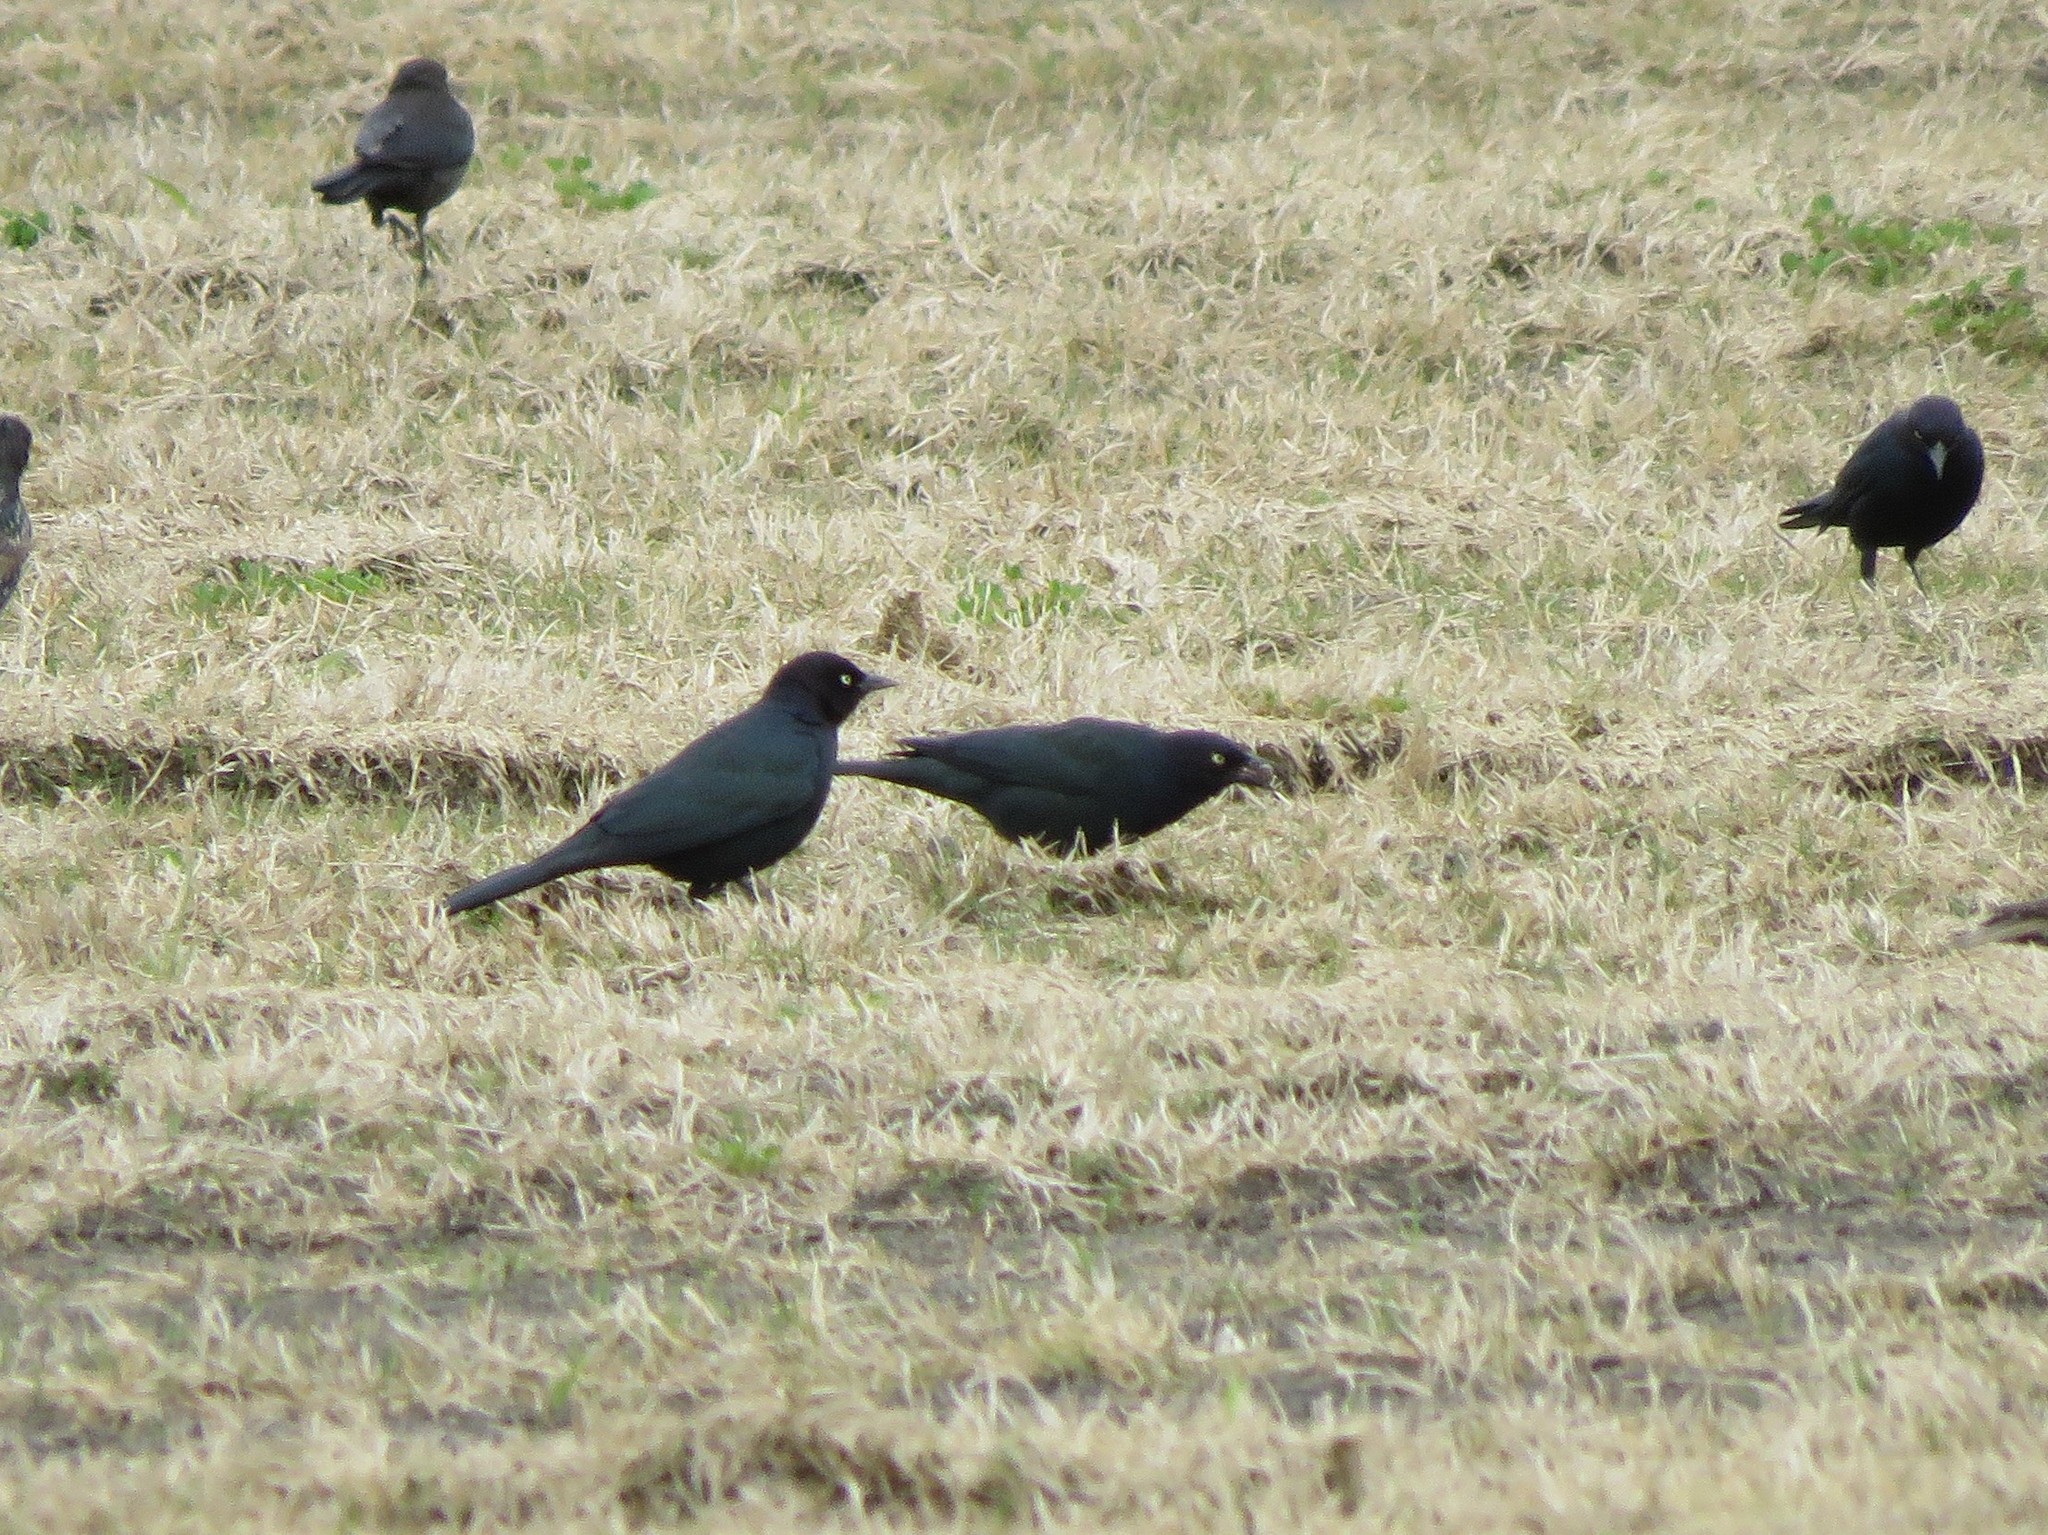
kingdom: Animalia
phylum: Chordata
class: Aves
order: Passeriformes
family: Icteridae
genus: Euphagus
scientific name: Euphagus cyanocephalus
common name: Brewer's blackbird
